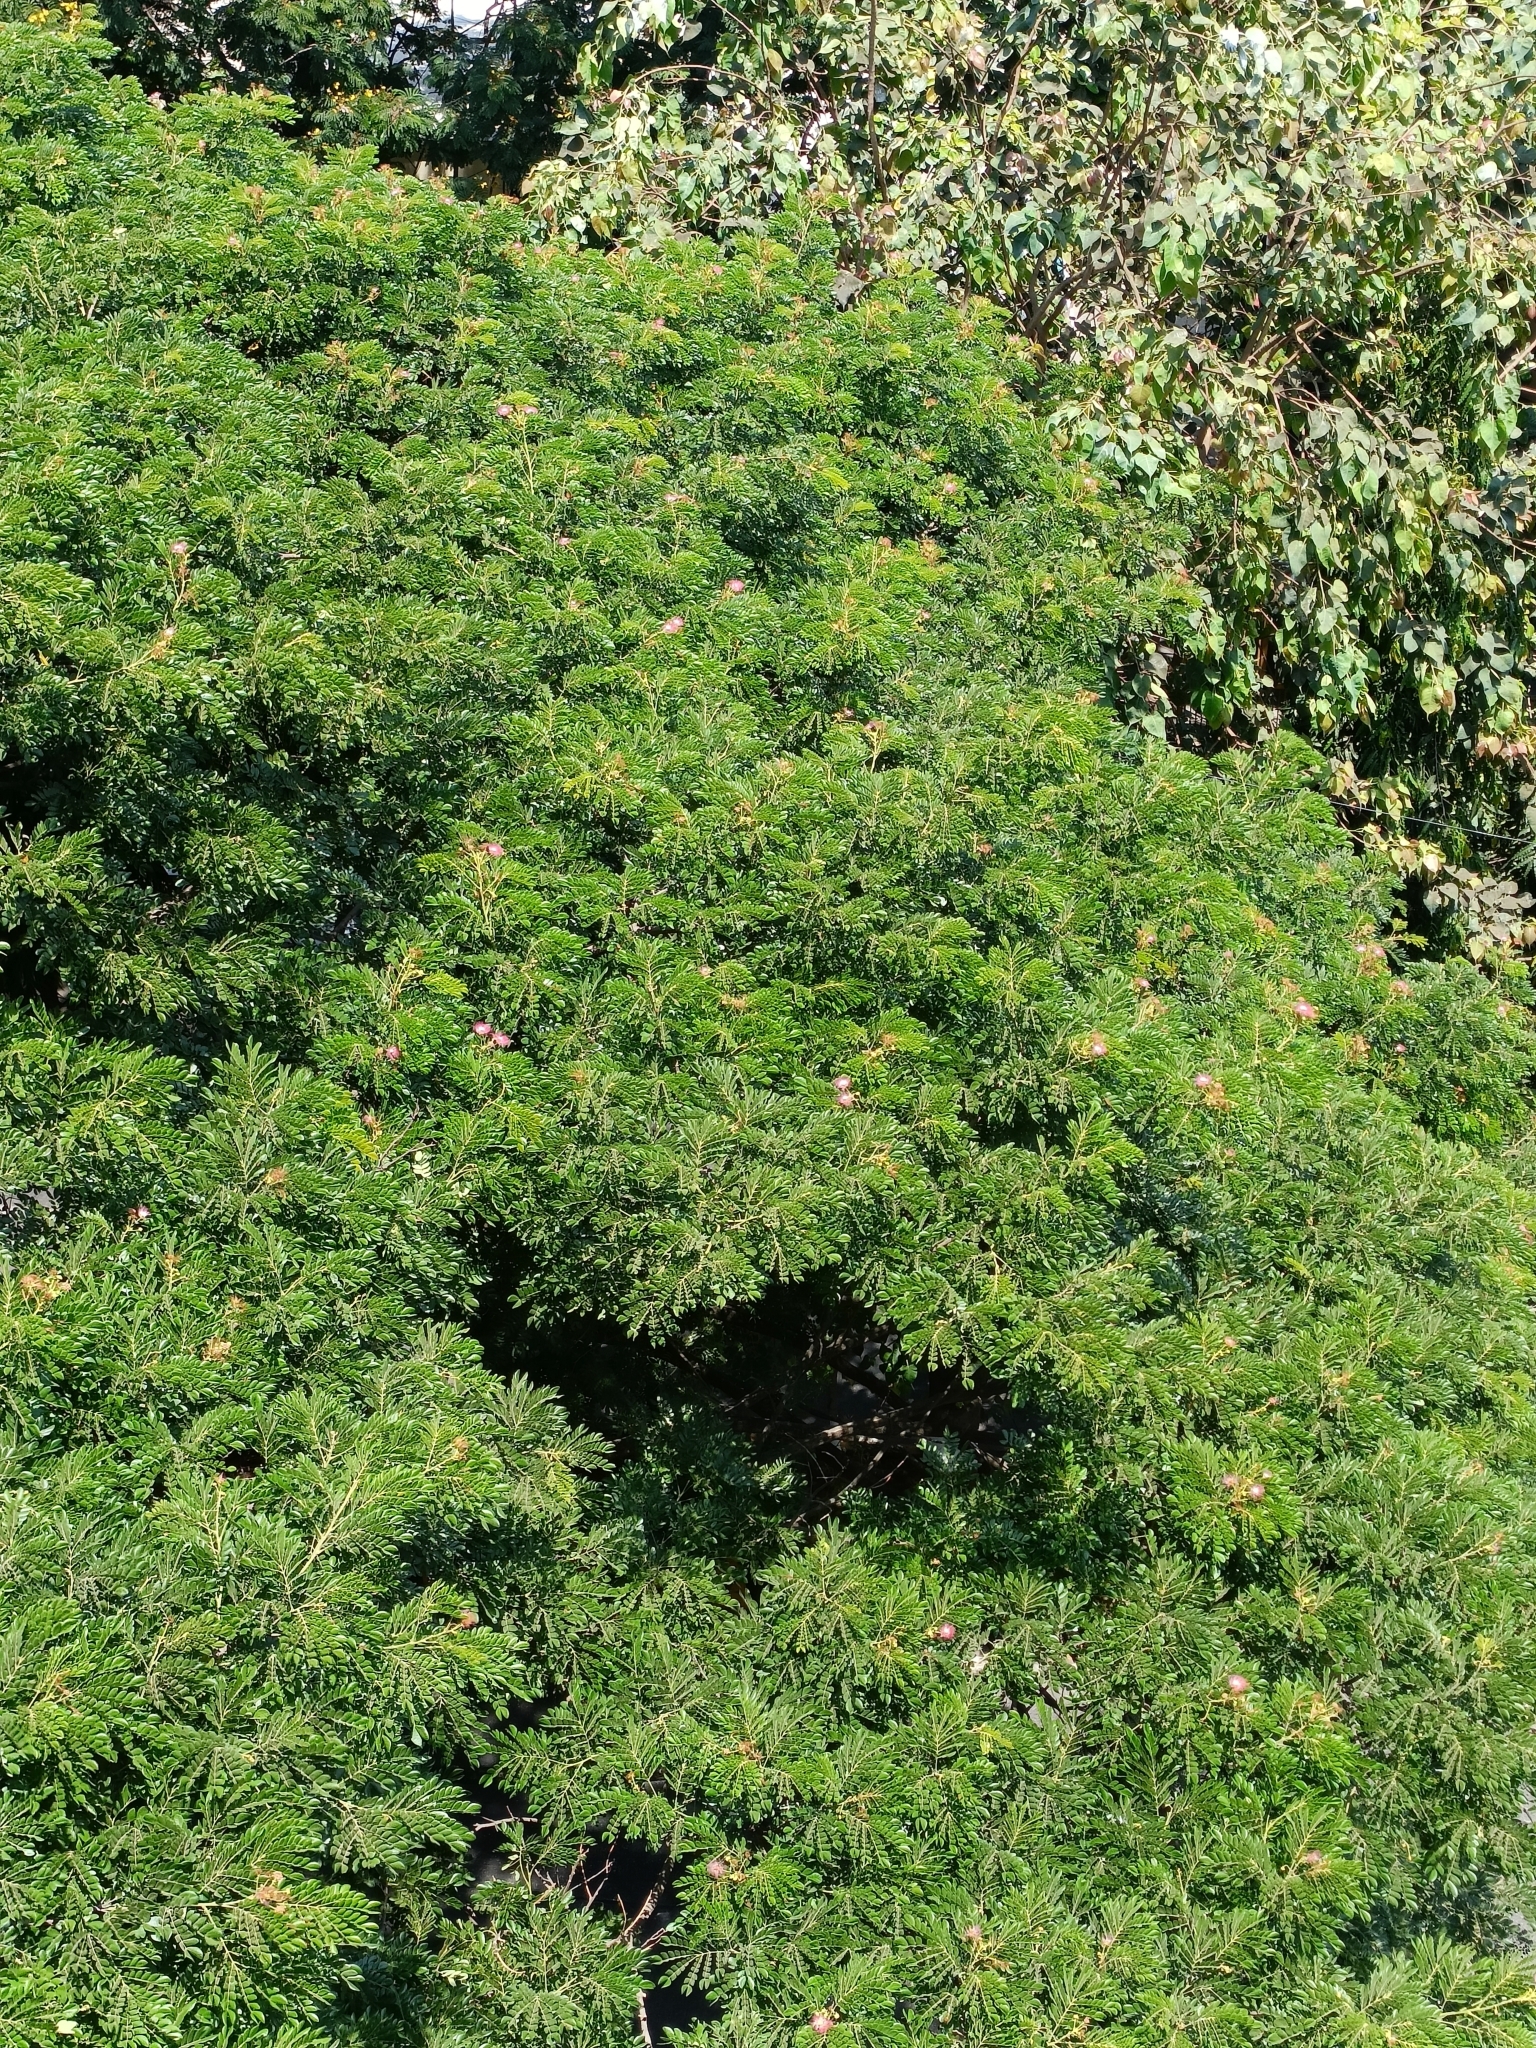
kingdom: Plantae
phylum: Tracheophyta
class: Magnoliopsida
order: Fabales
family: Fabaceae
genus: Samanea
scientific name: Samanea saman
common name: Raintree
